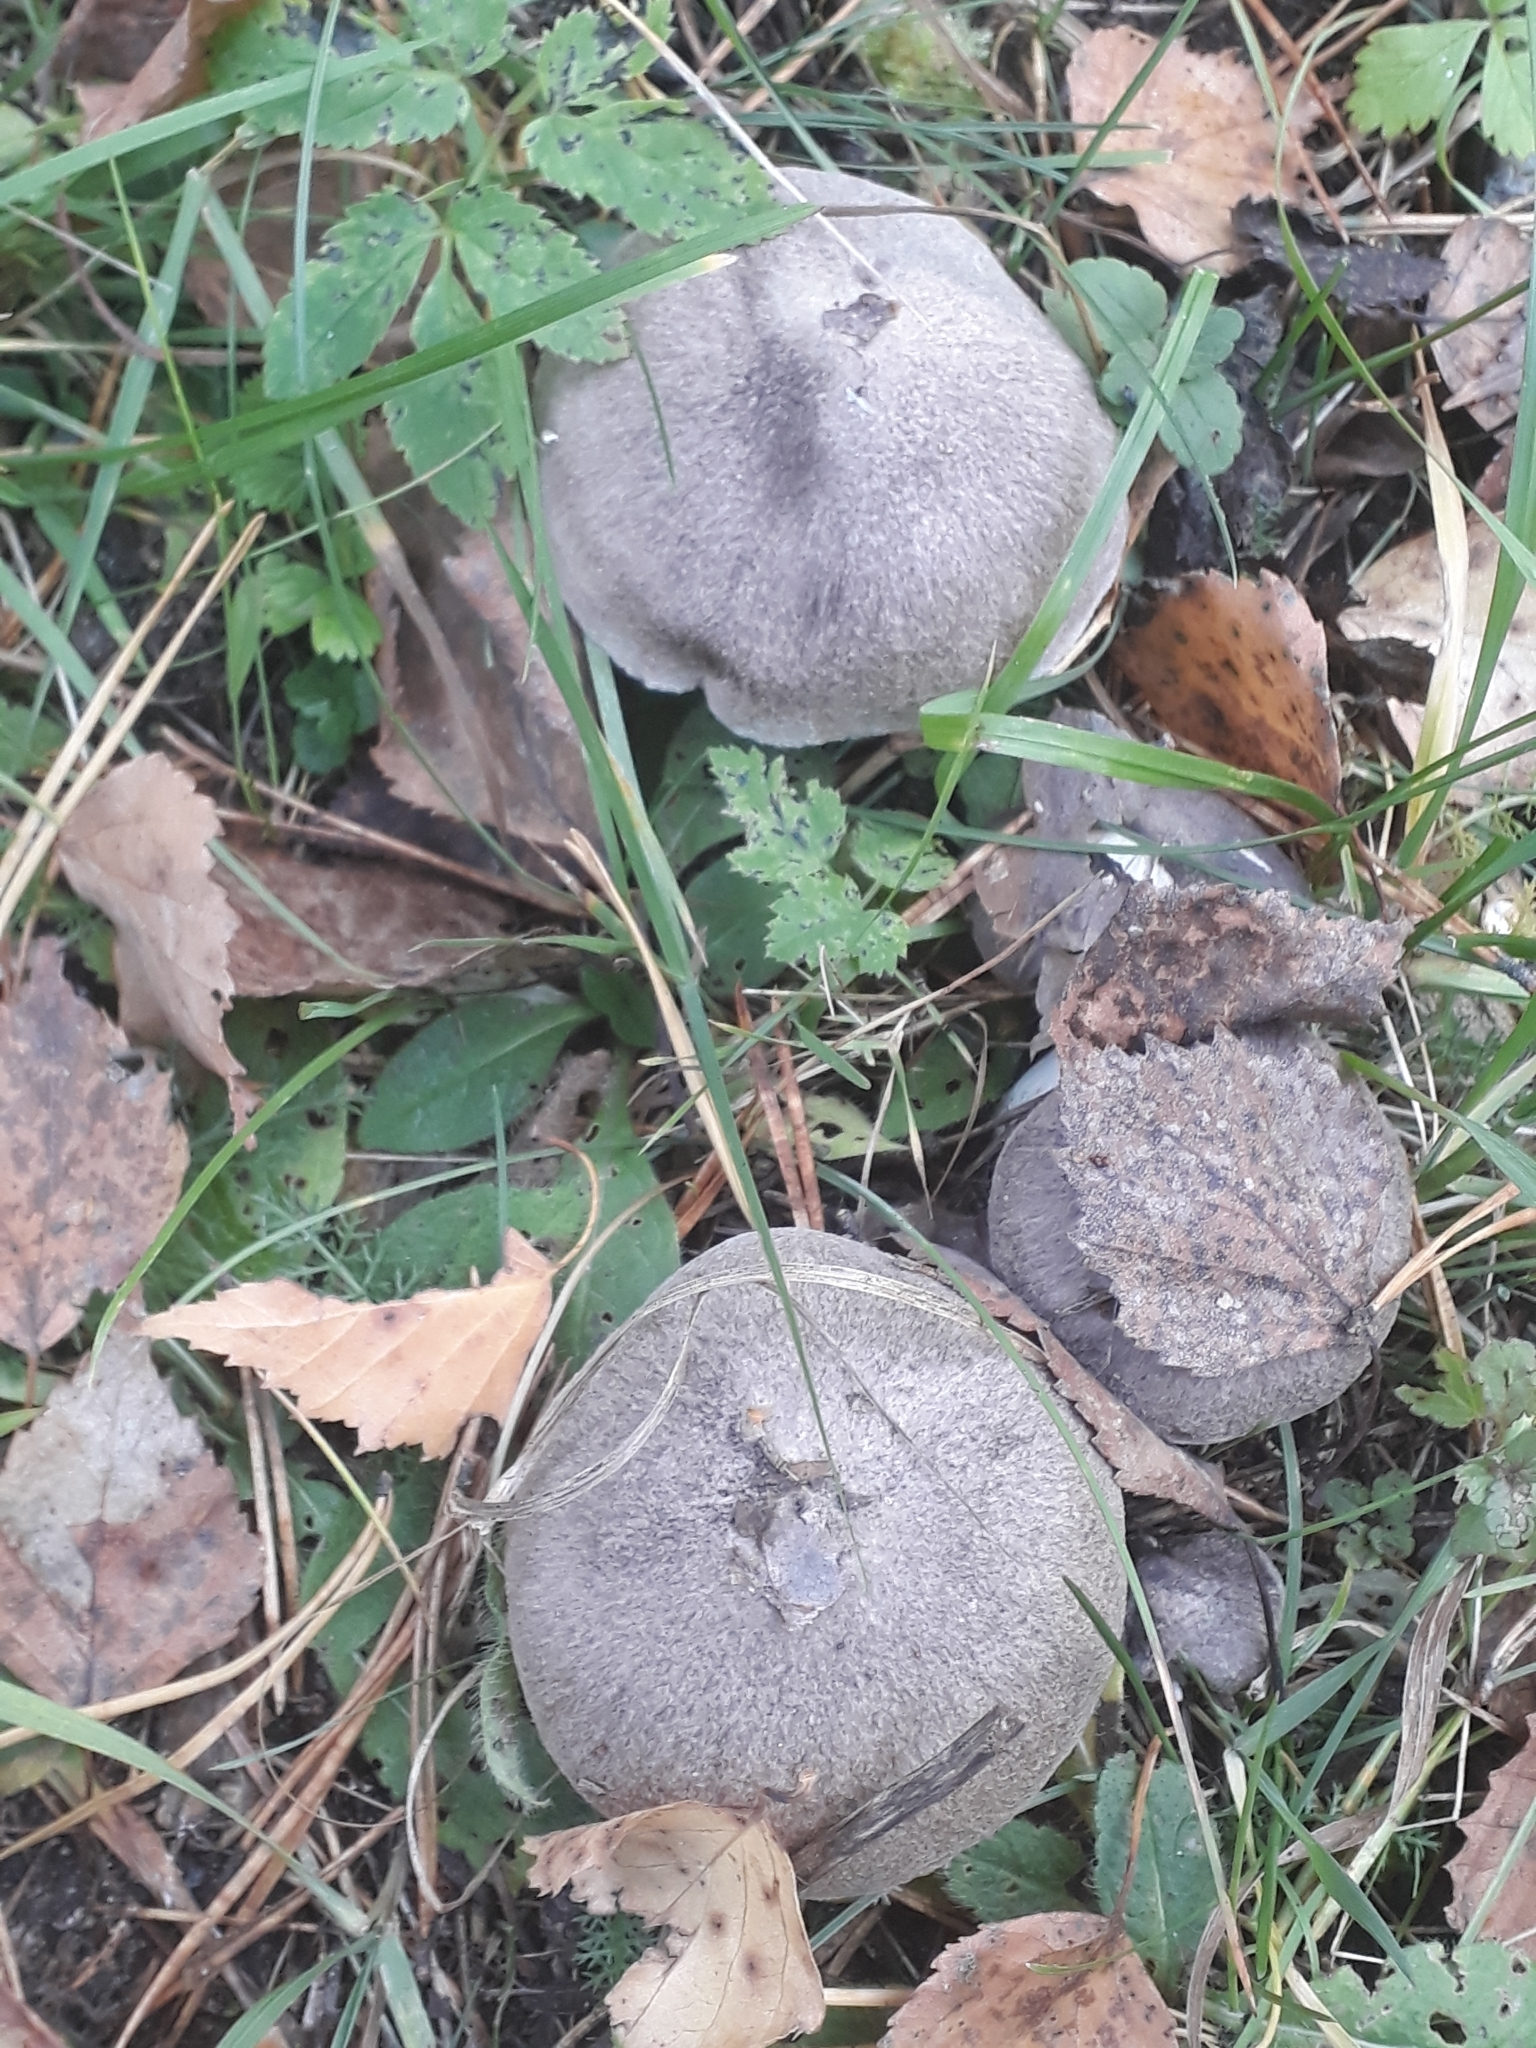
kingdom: Fungi
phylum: Basidiomycota
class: Agaricomycetes
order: Agaricales
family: Tricholomataceae
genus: Tricholoma
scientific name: Tricholoma terreum
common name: Grey knight
